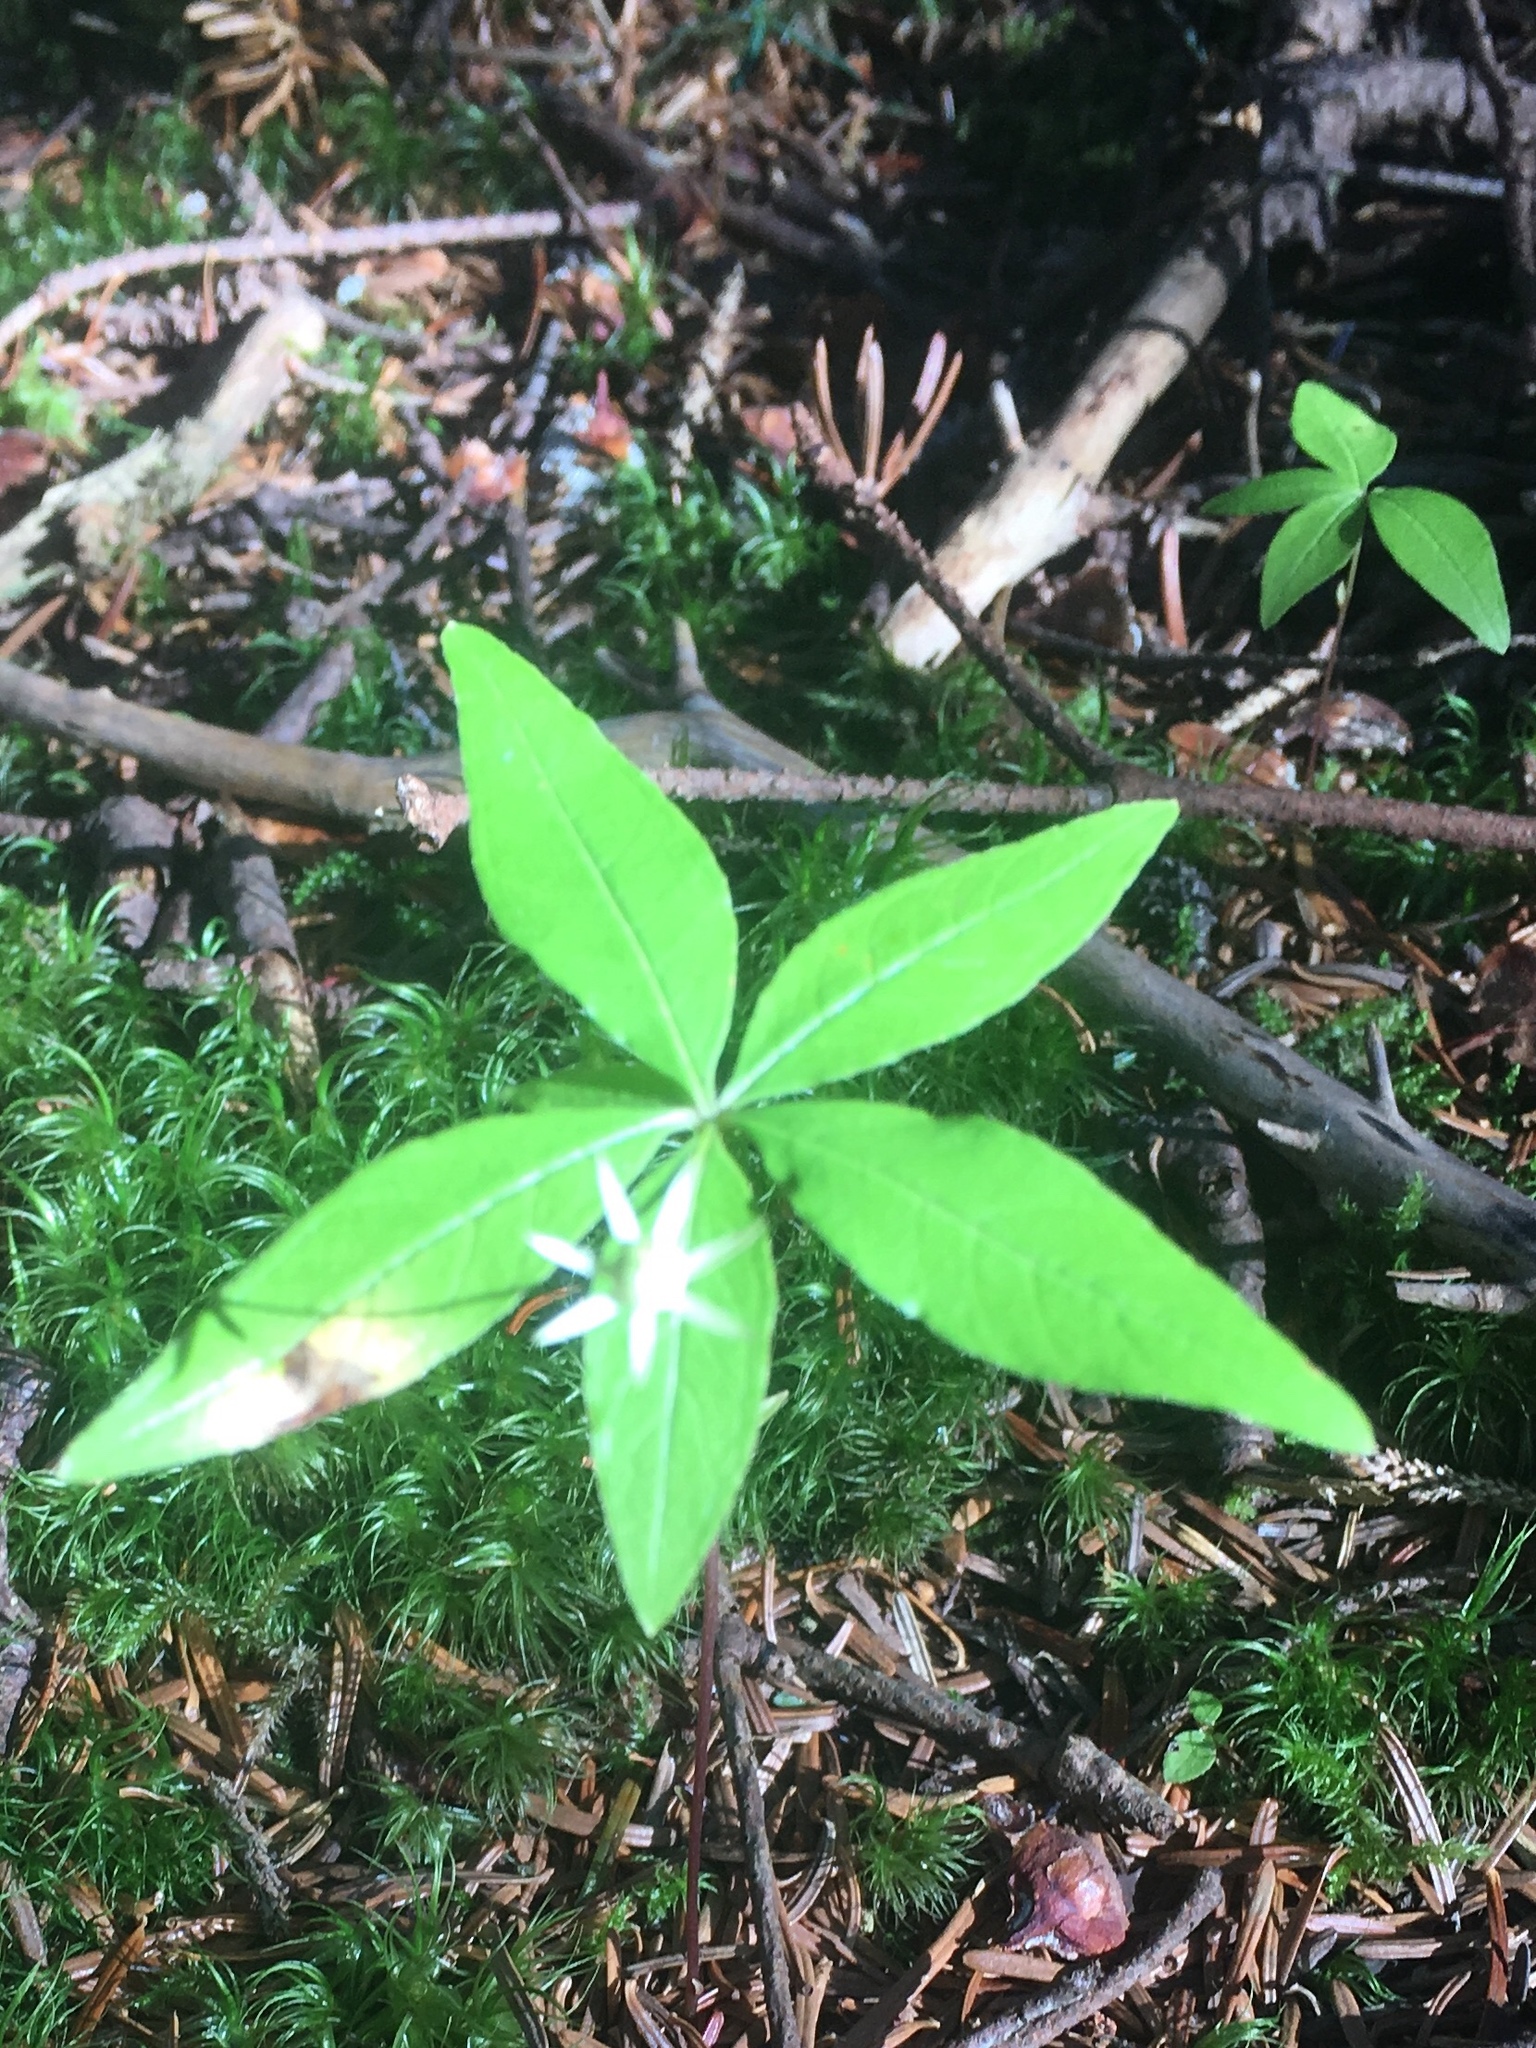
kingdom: Plantae
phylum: Tracheophyta
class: Magnoliopsida
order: Ericales
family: Primulaceae
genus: Lysimachia
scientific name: Lysimachia borealis
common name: American starflower
